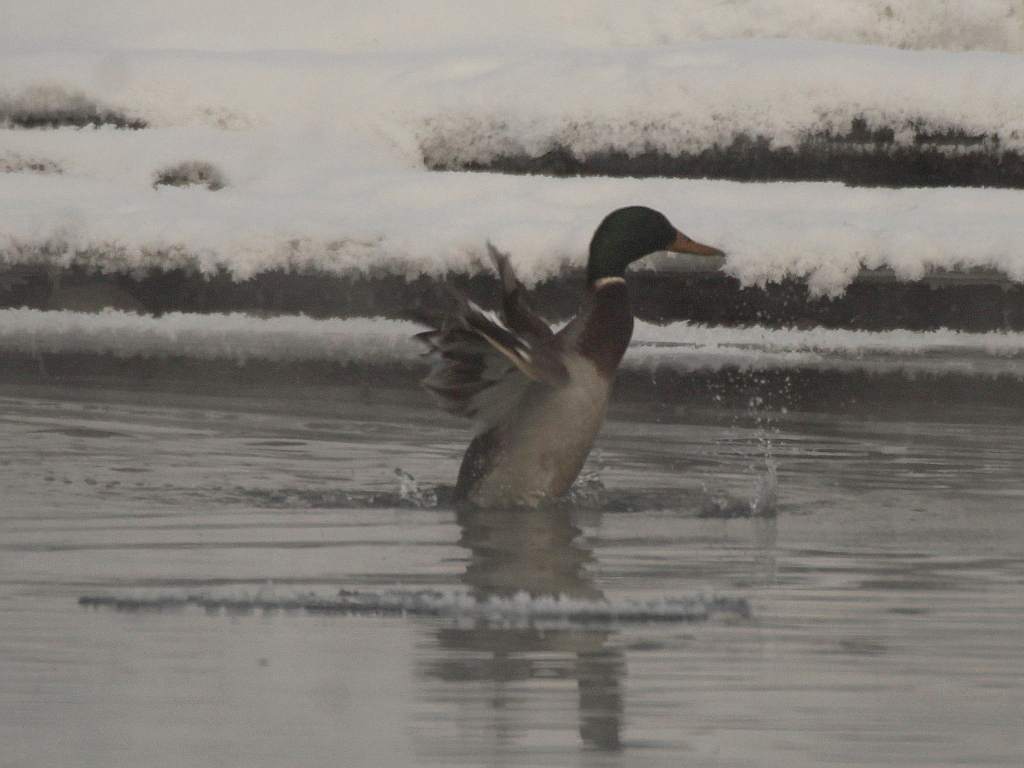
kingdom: Animalia
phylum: Chordata
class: Aves
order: Anseriformes
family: Anatidae
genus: Anas
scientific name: Anas platyrhynchos
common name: Mallard
